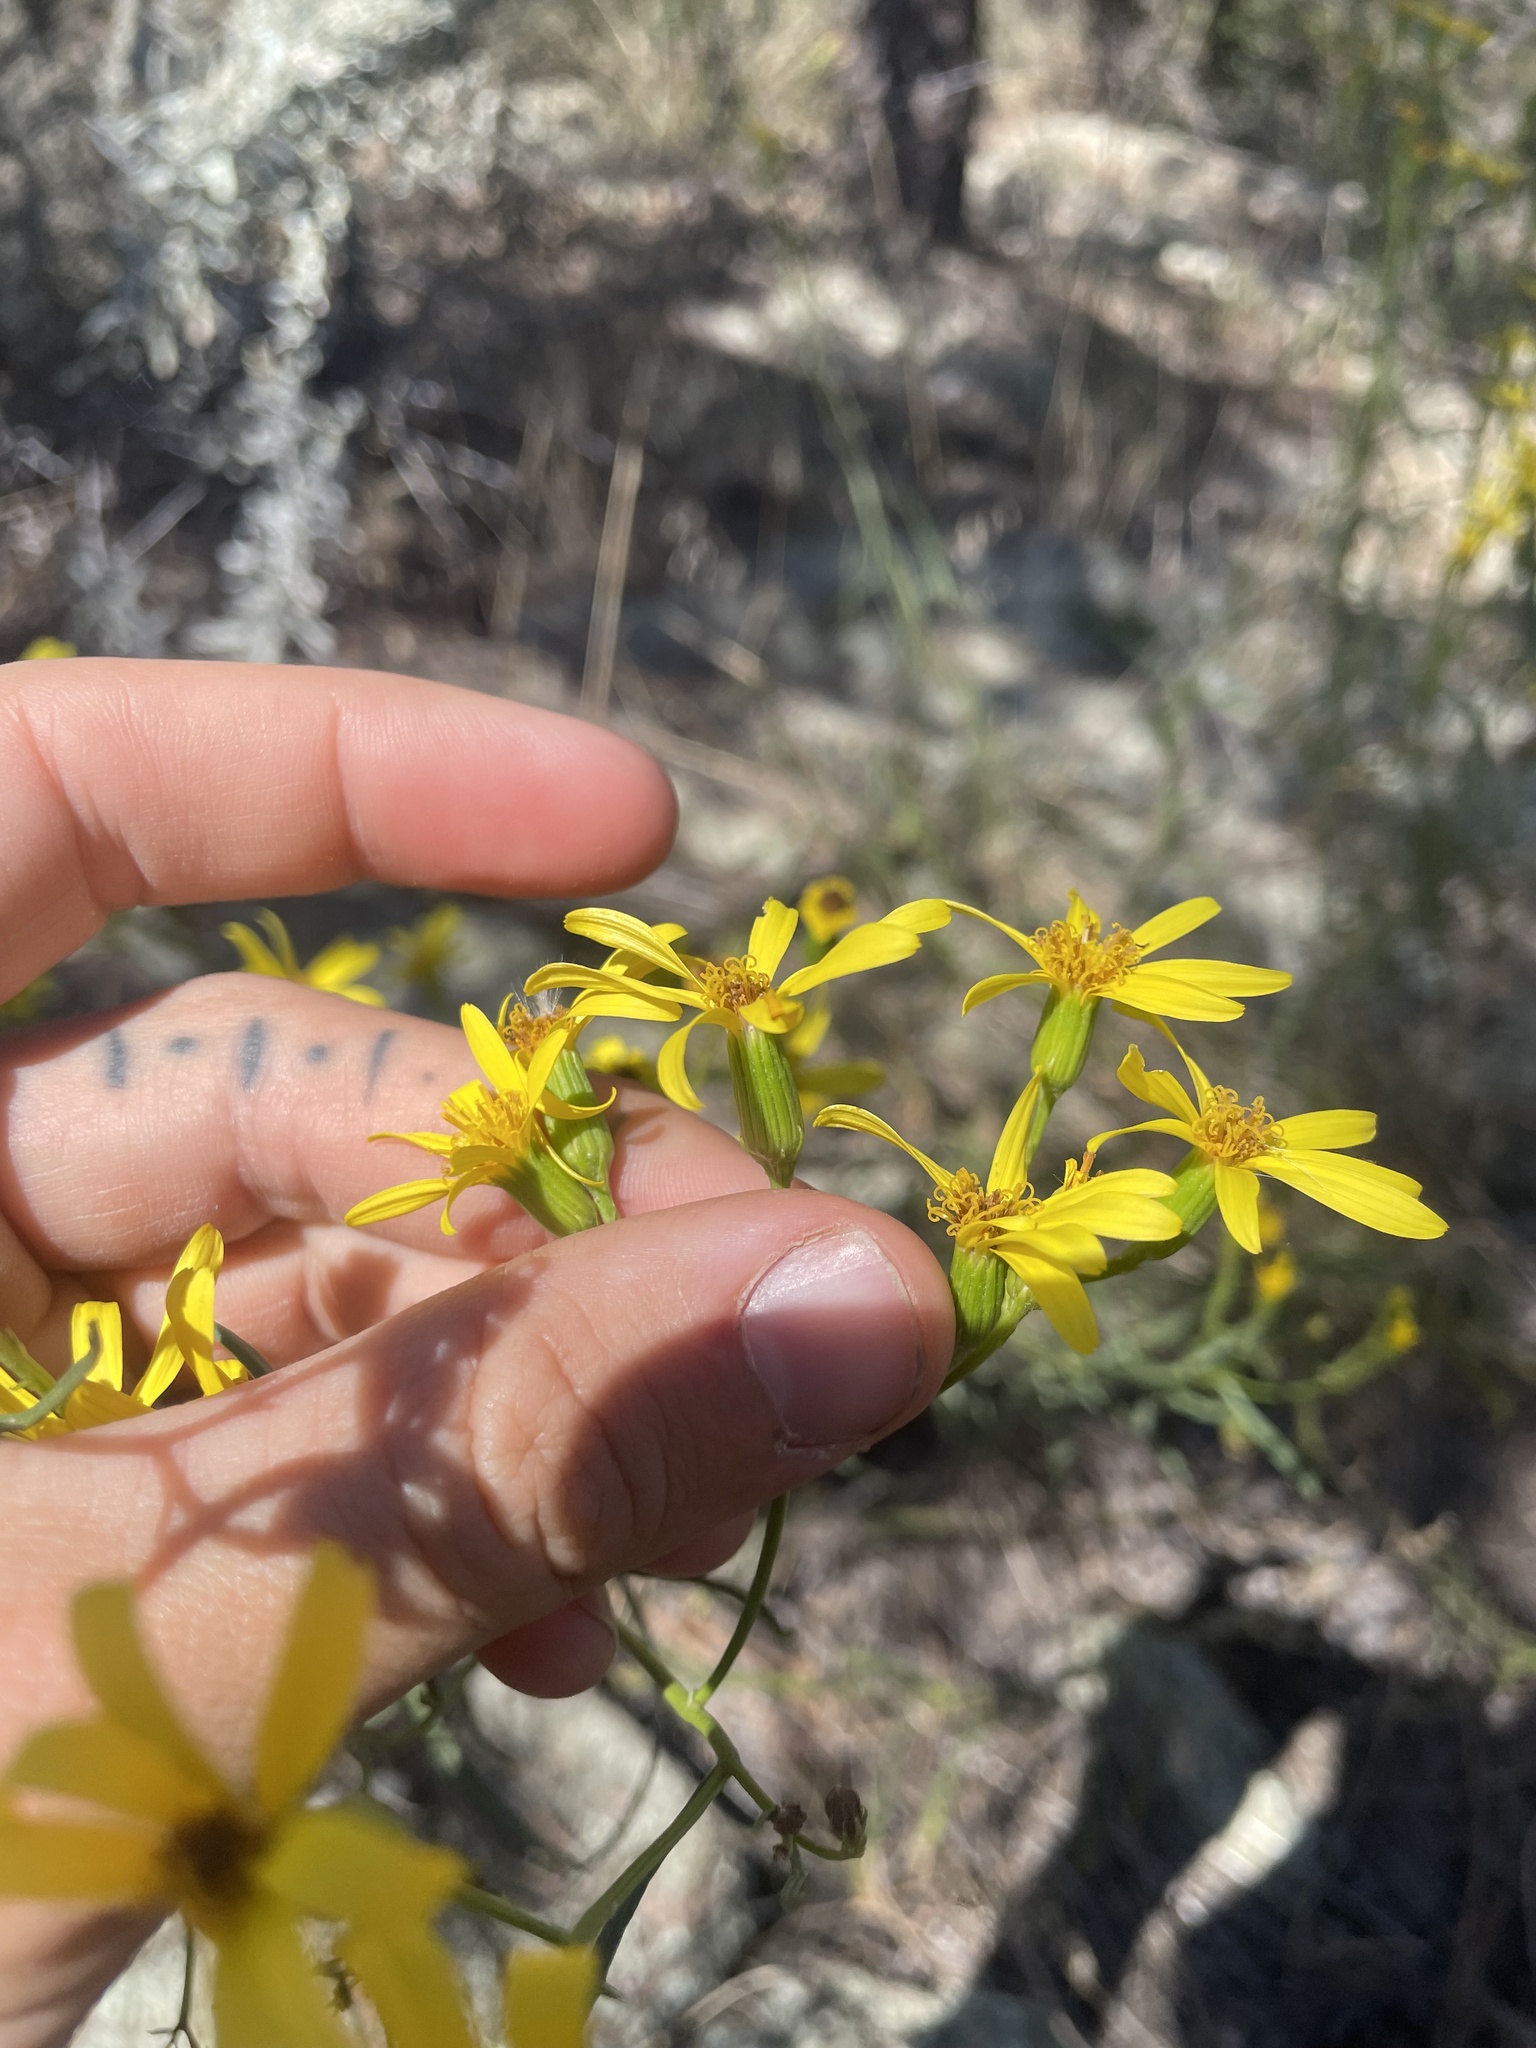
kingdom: Plantae
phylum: Tracheophyta
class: Magnoliopsida
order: Asterales
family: Asteraceae
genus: Senecio
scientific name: Senecio spartioides
